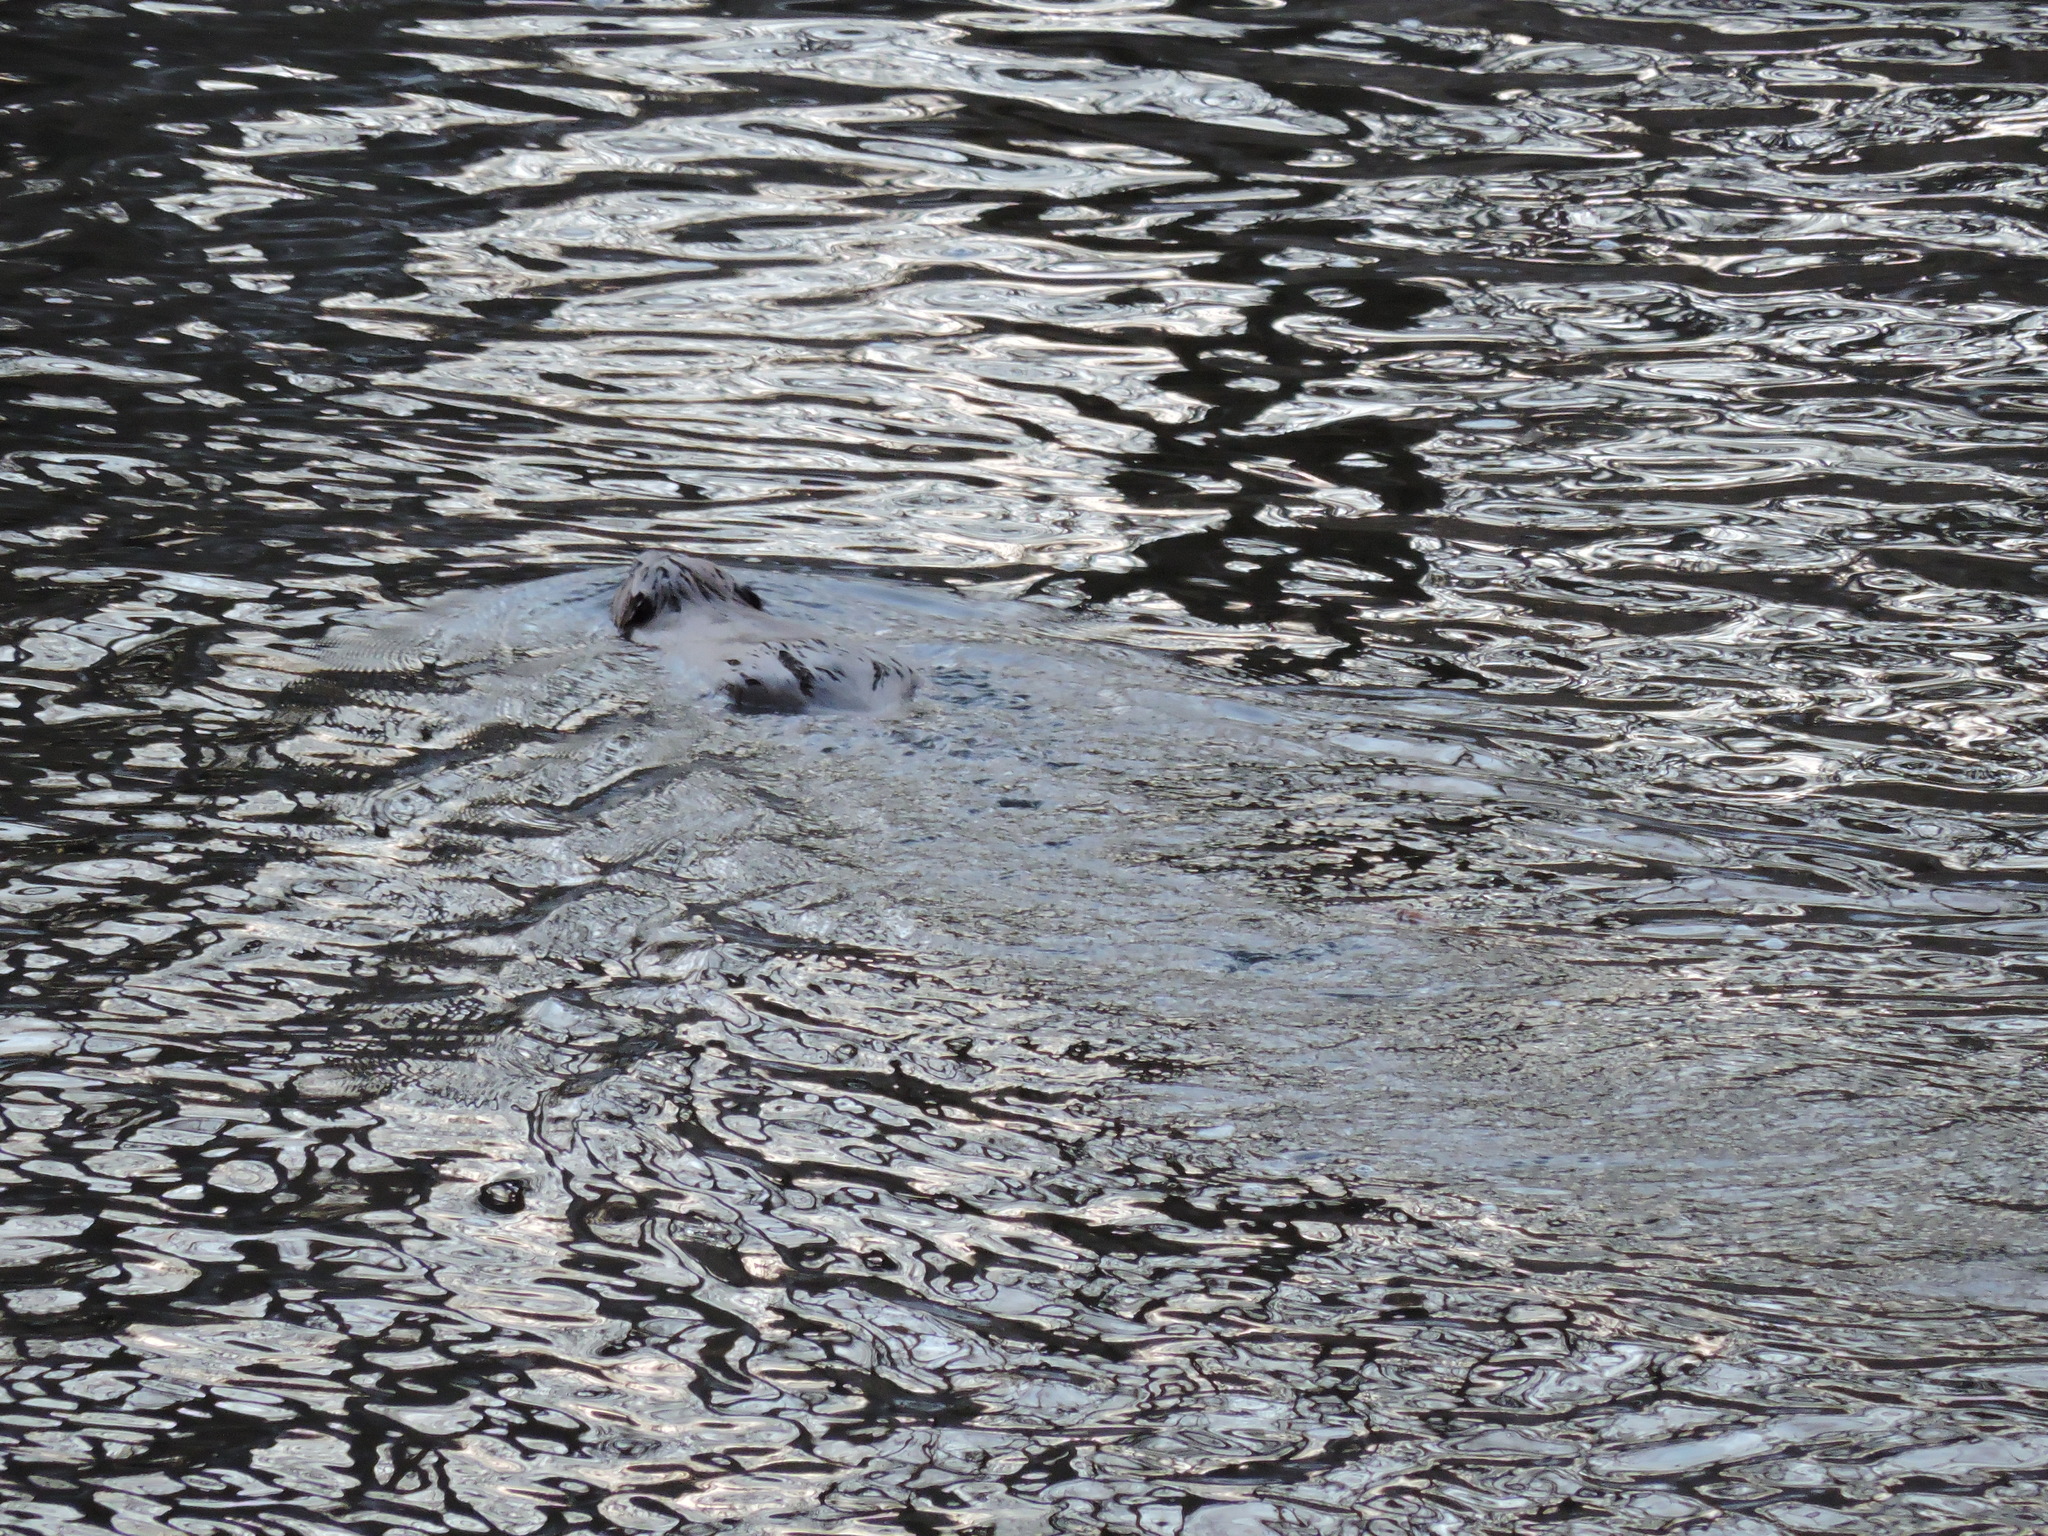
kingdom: Animalia
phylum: Chordata
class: Mammalia
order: Rodentia
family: Castoridae
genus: Castor
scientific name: Castor fiber
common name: Eurasian beaver
